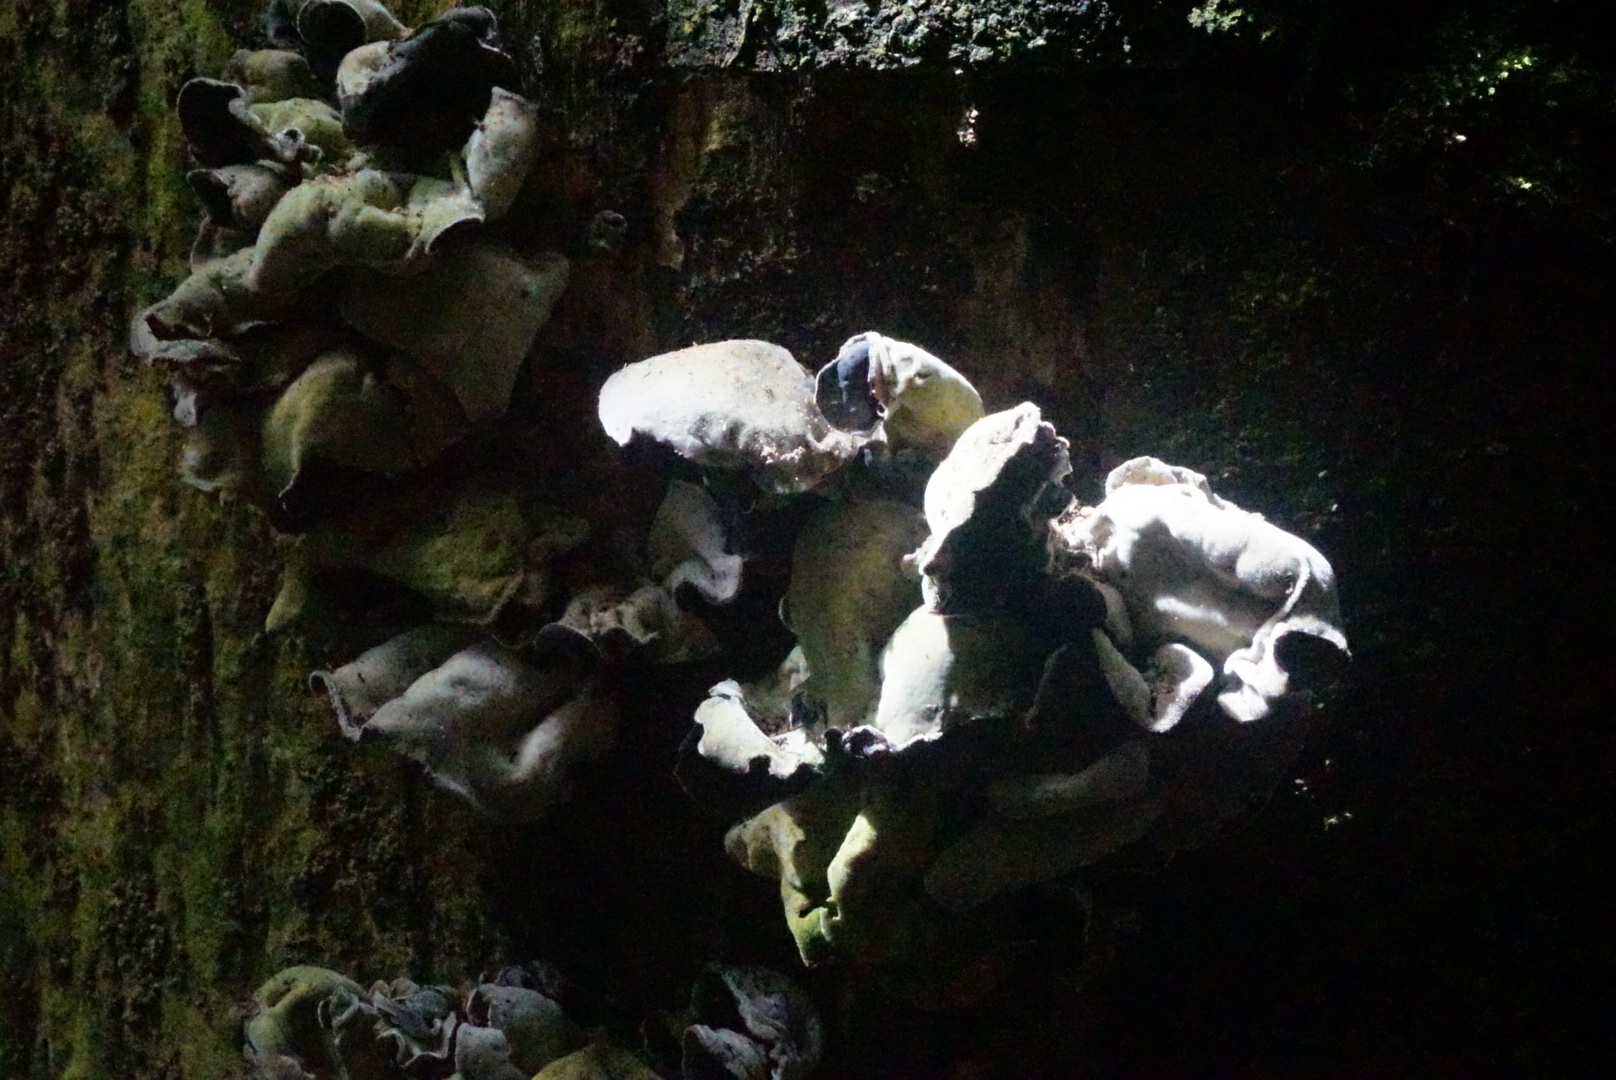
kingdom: Fungi
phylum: Basidiomycota
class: Agaricomycetes
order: Auriculariales
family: Auriculariaceae
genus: Auricularia
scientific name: Auricularia cornea
